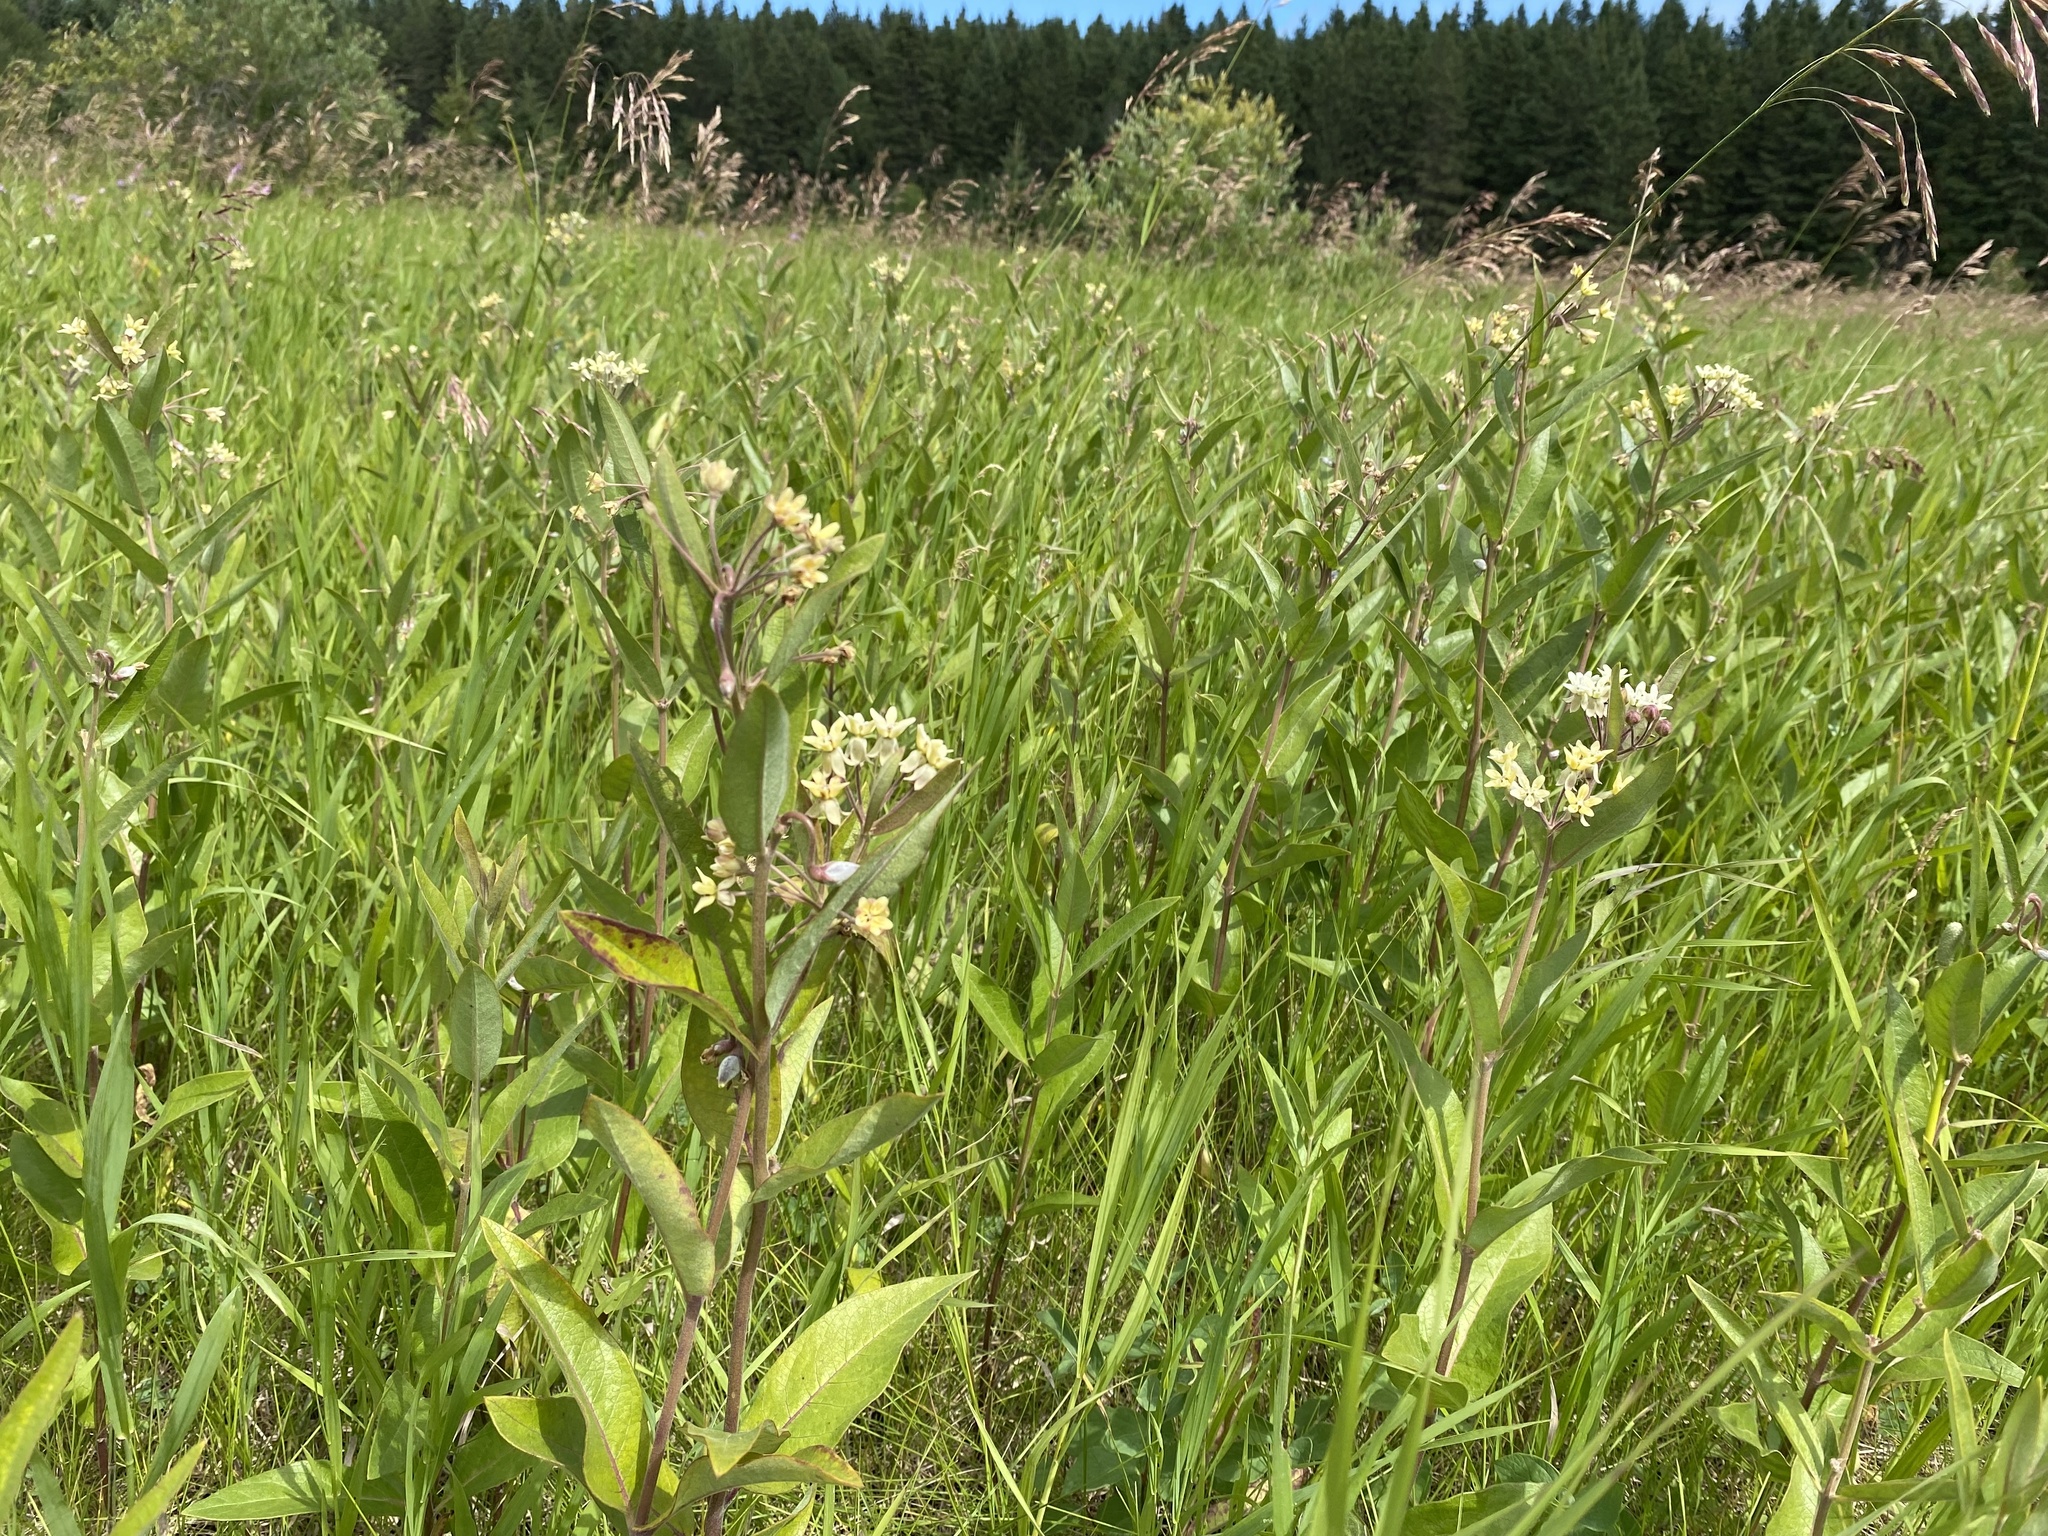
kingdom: Plantae
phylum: Tracheophyta
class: Magnoliopsida
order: Gentianales
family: Apocynaceae
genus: Asclepias
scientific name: Asclepias ovalifolia
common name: Dwarf milkweed
